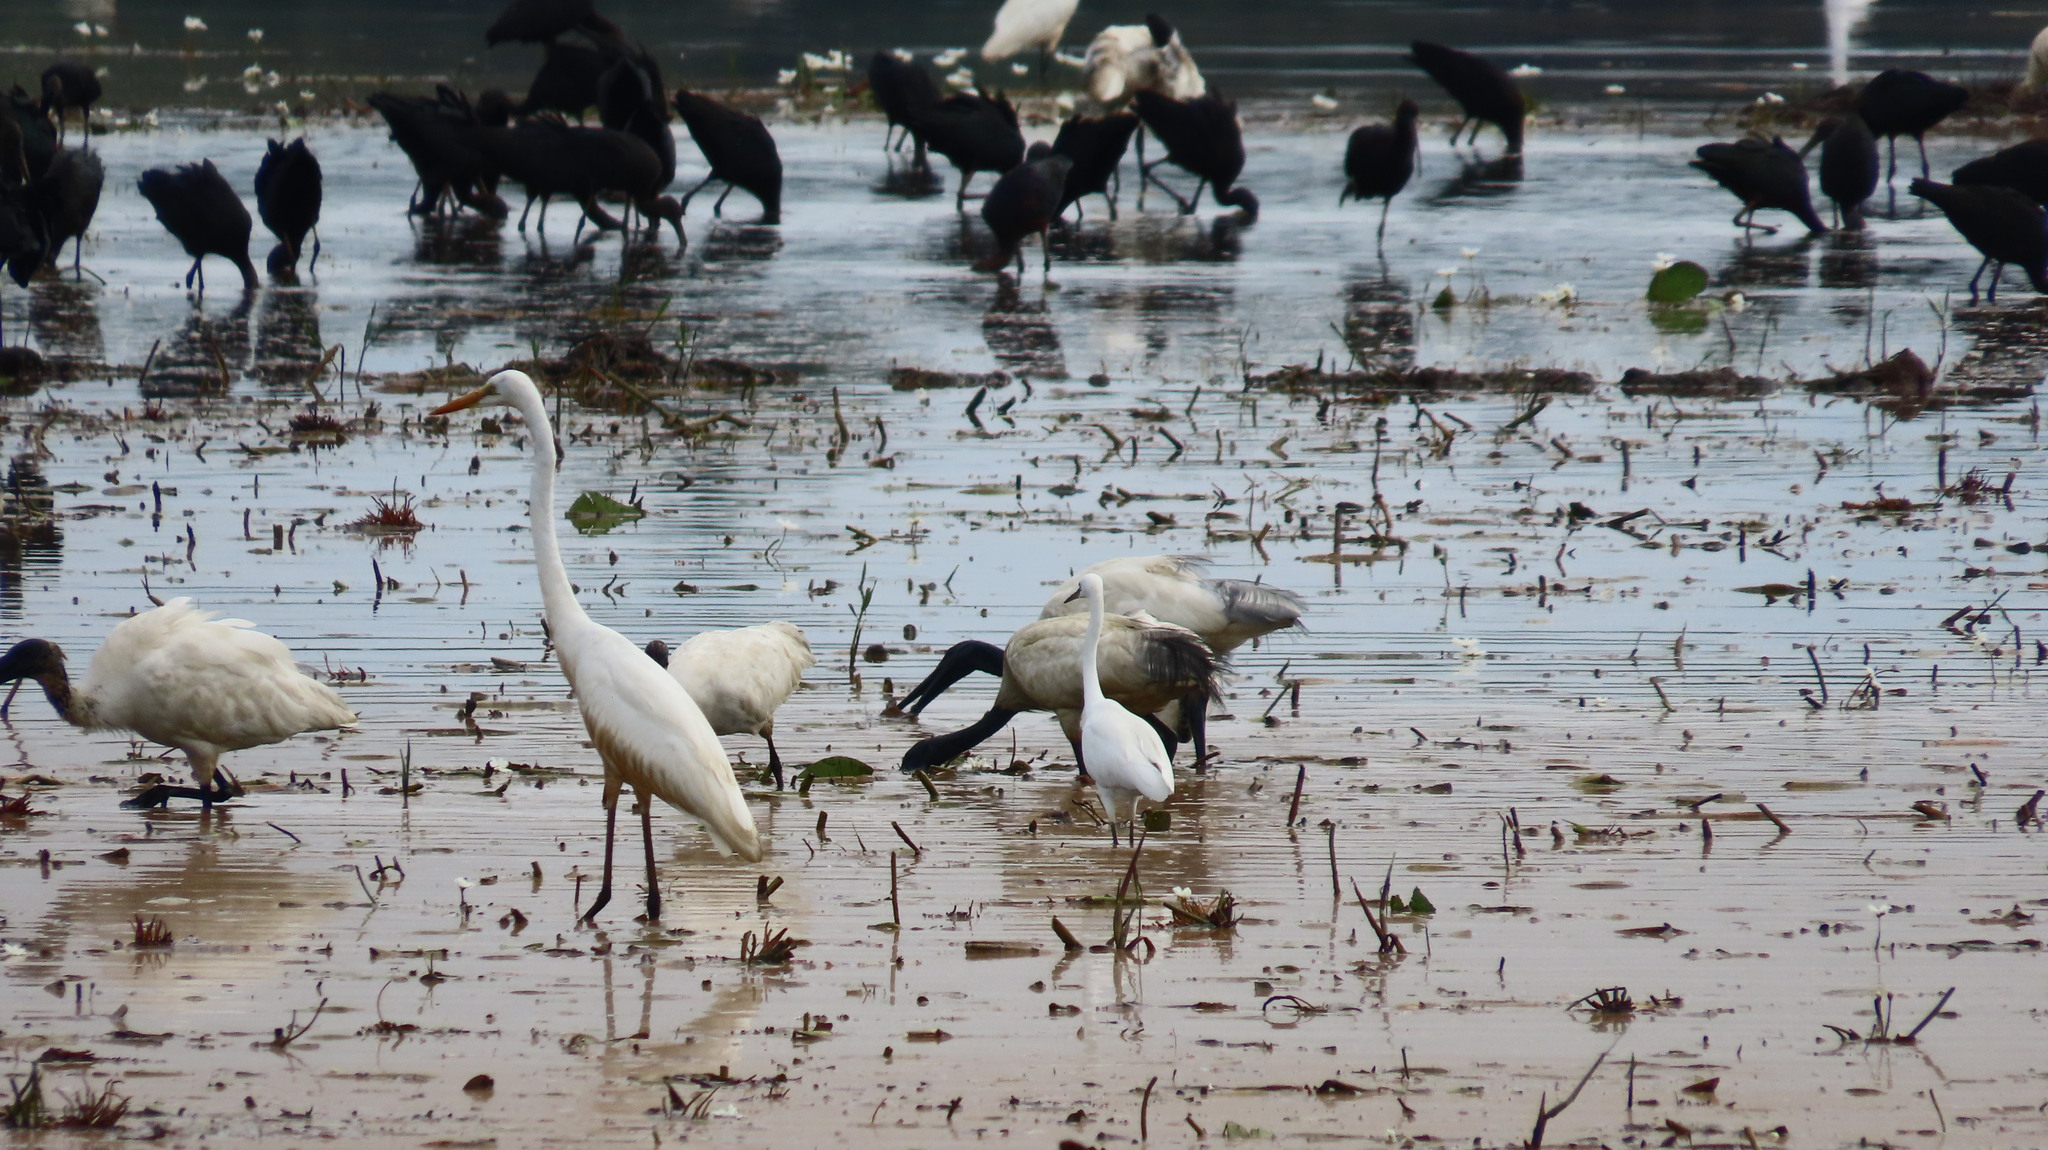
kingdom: Animalia
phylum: Chordata
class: Aves
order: Pelecaniformes
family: Ardeidae
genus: Egretta
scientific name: Egretta garzetta
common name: Little egret
